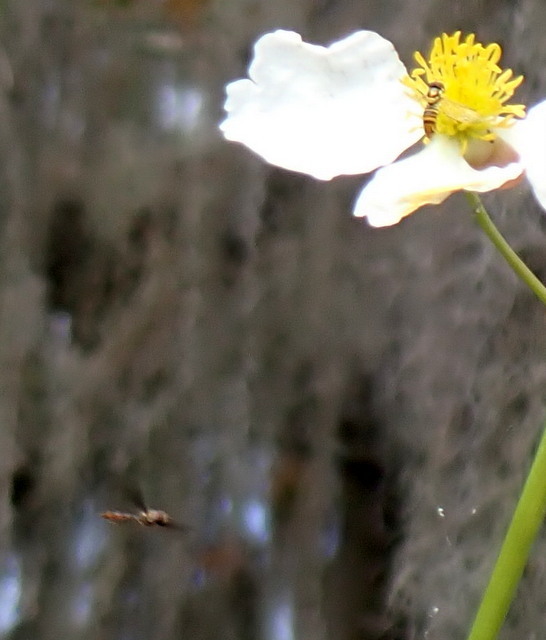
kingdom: Animalia
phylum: Arthropoda
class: Insecta
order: Diptera
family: Syrphidae
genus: Allograpta
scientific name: Allograpta obliqua
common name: Common oblique syrphid
